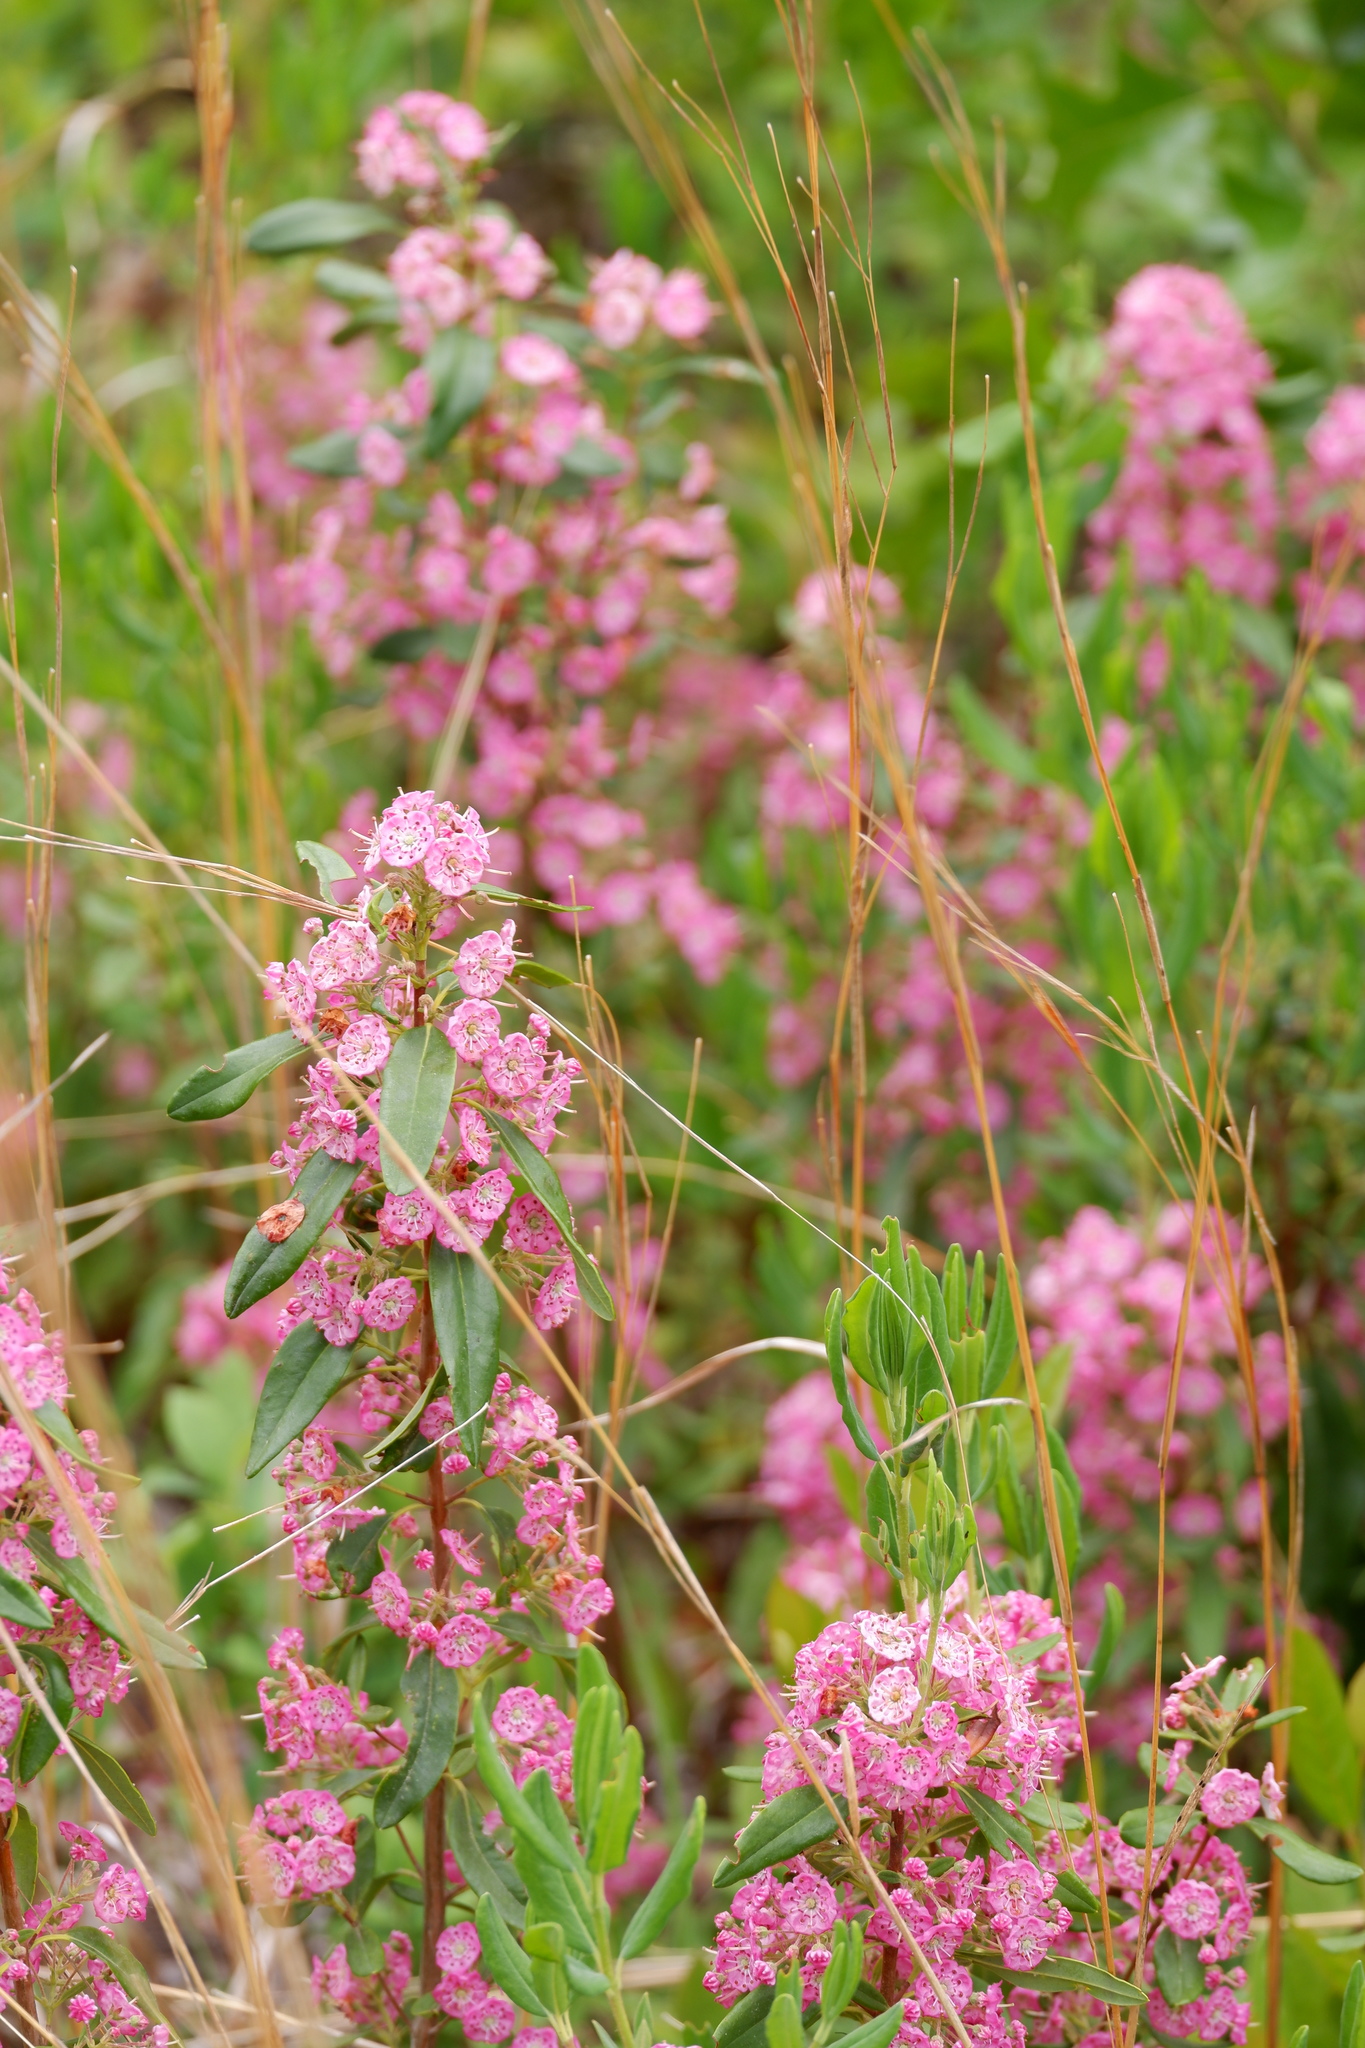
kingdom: Plantae
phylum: Tracheophyta
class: Magnoliopsida
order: Ericales
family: Ericaceae
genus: Kalmia
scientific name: Kalmia angustifolia
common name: Sheep-laurel
